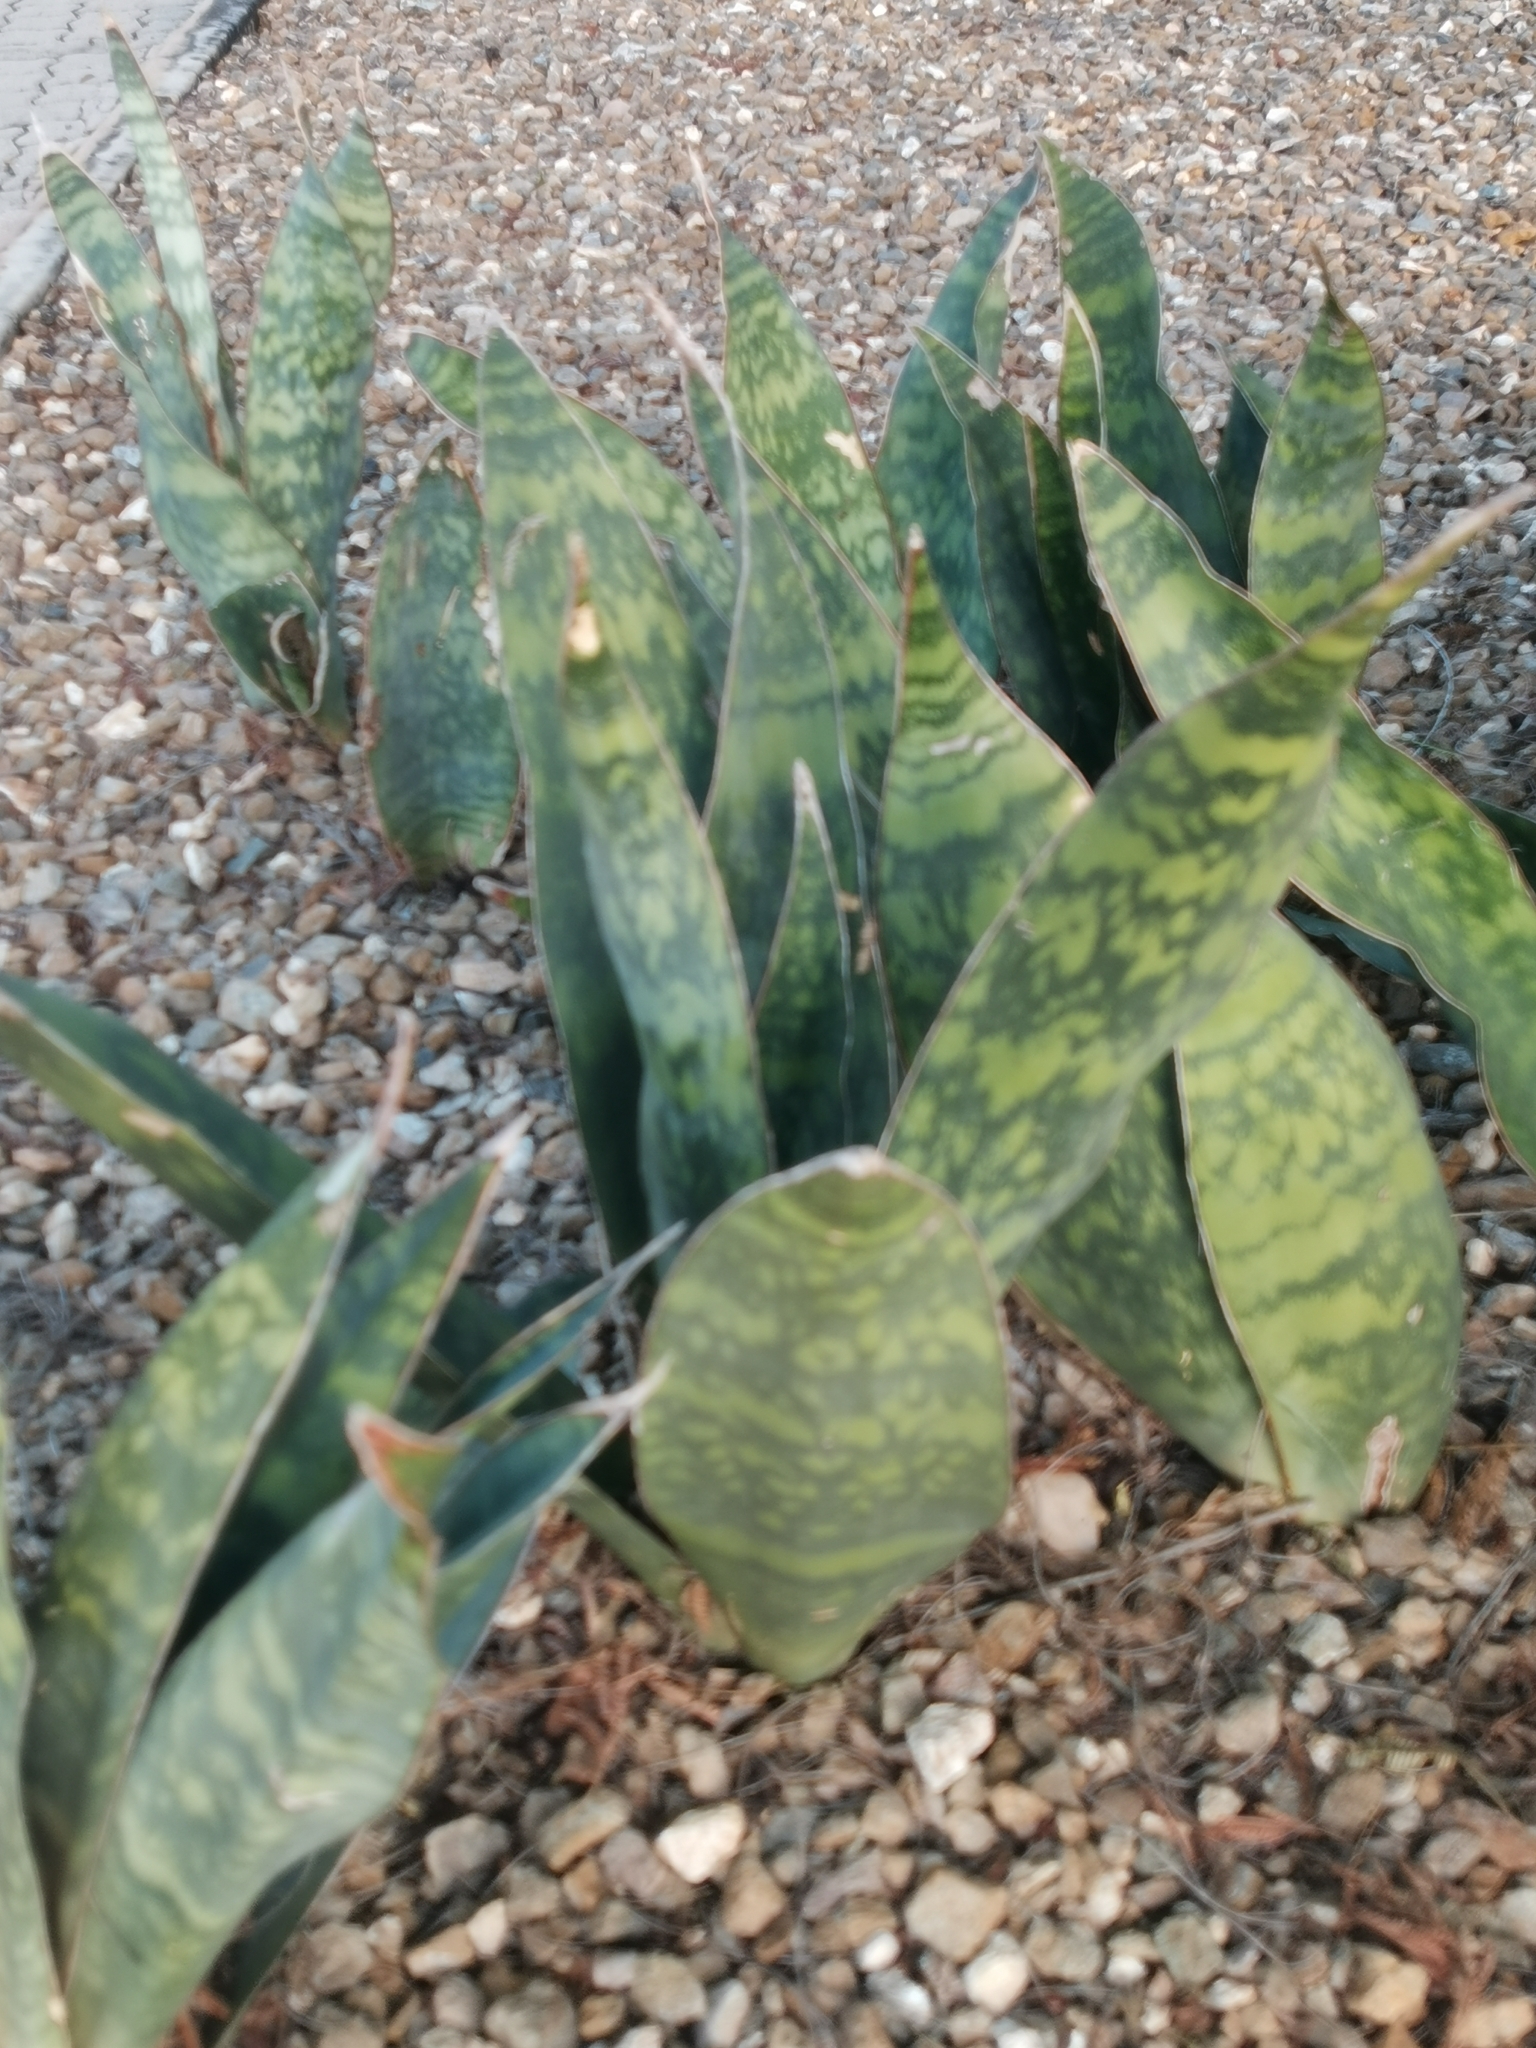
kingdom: Plantae
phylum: Tracheophyta
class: Liliopsida
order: Asparagales
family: Asparagaceae
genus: Dracaena
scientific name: Dracaena hyacinthoides
